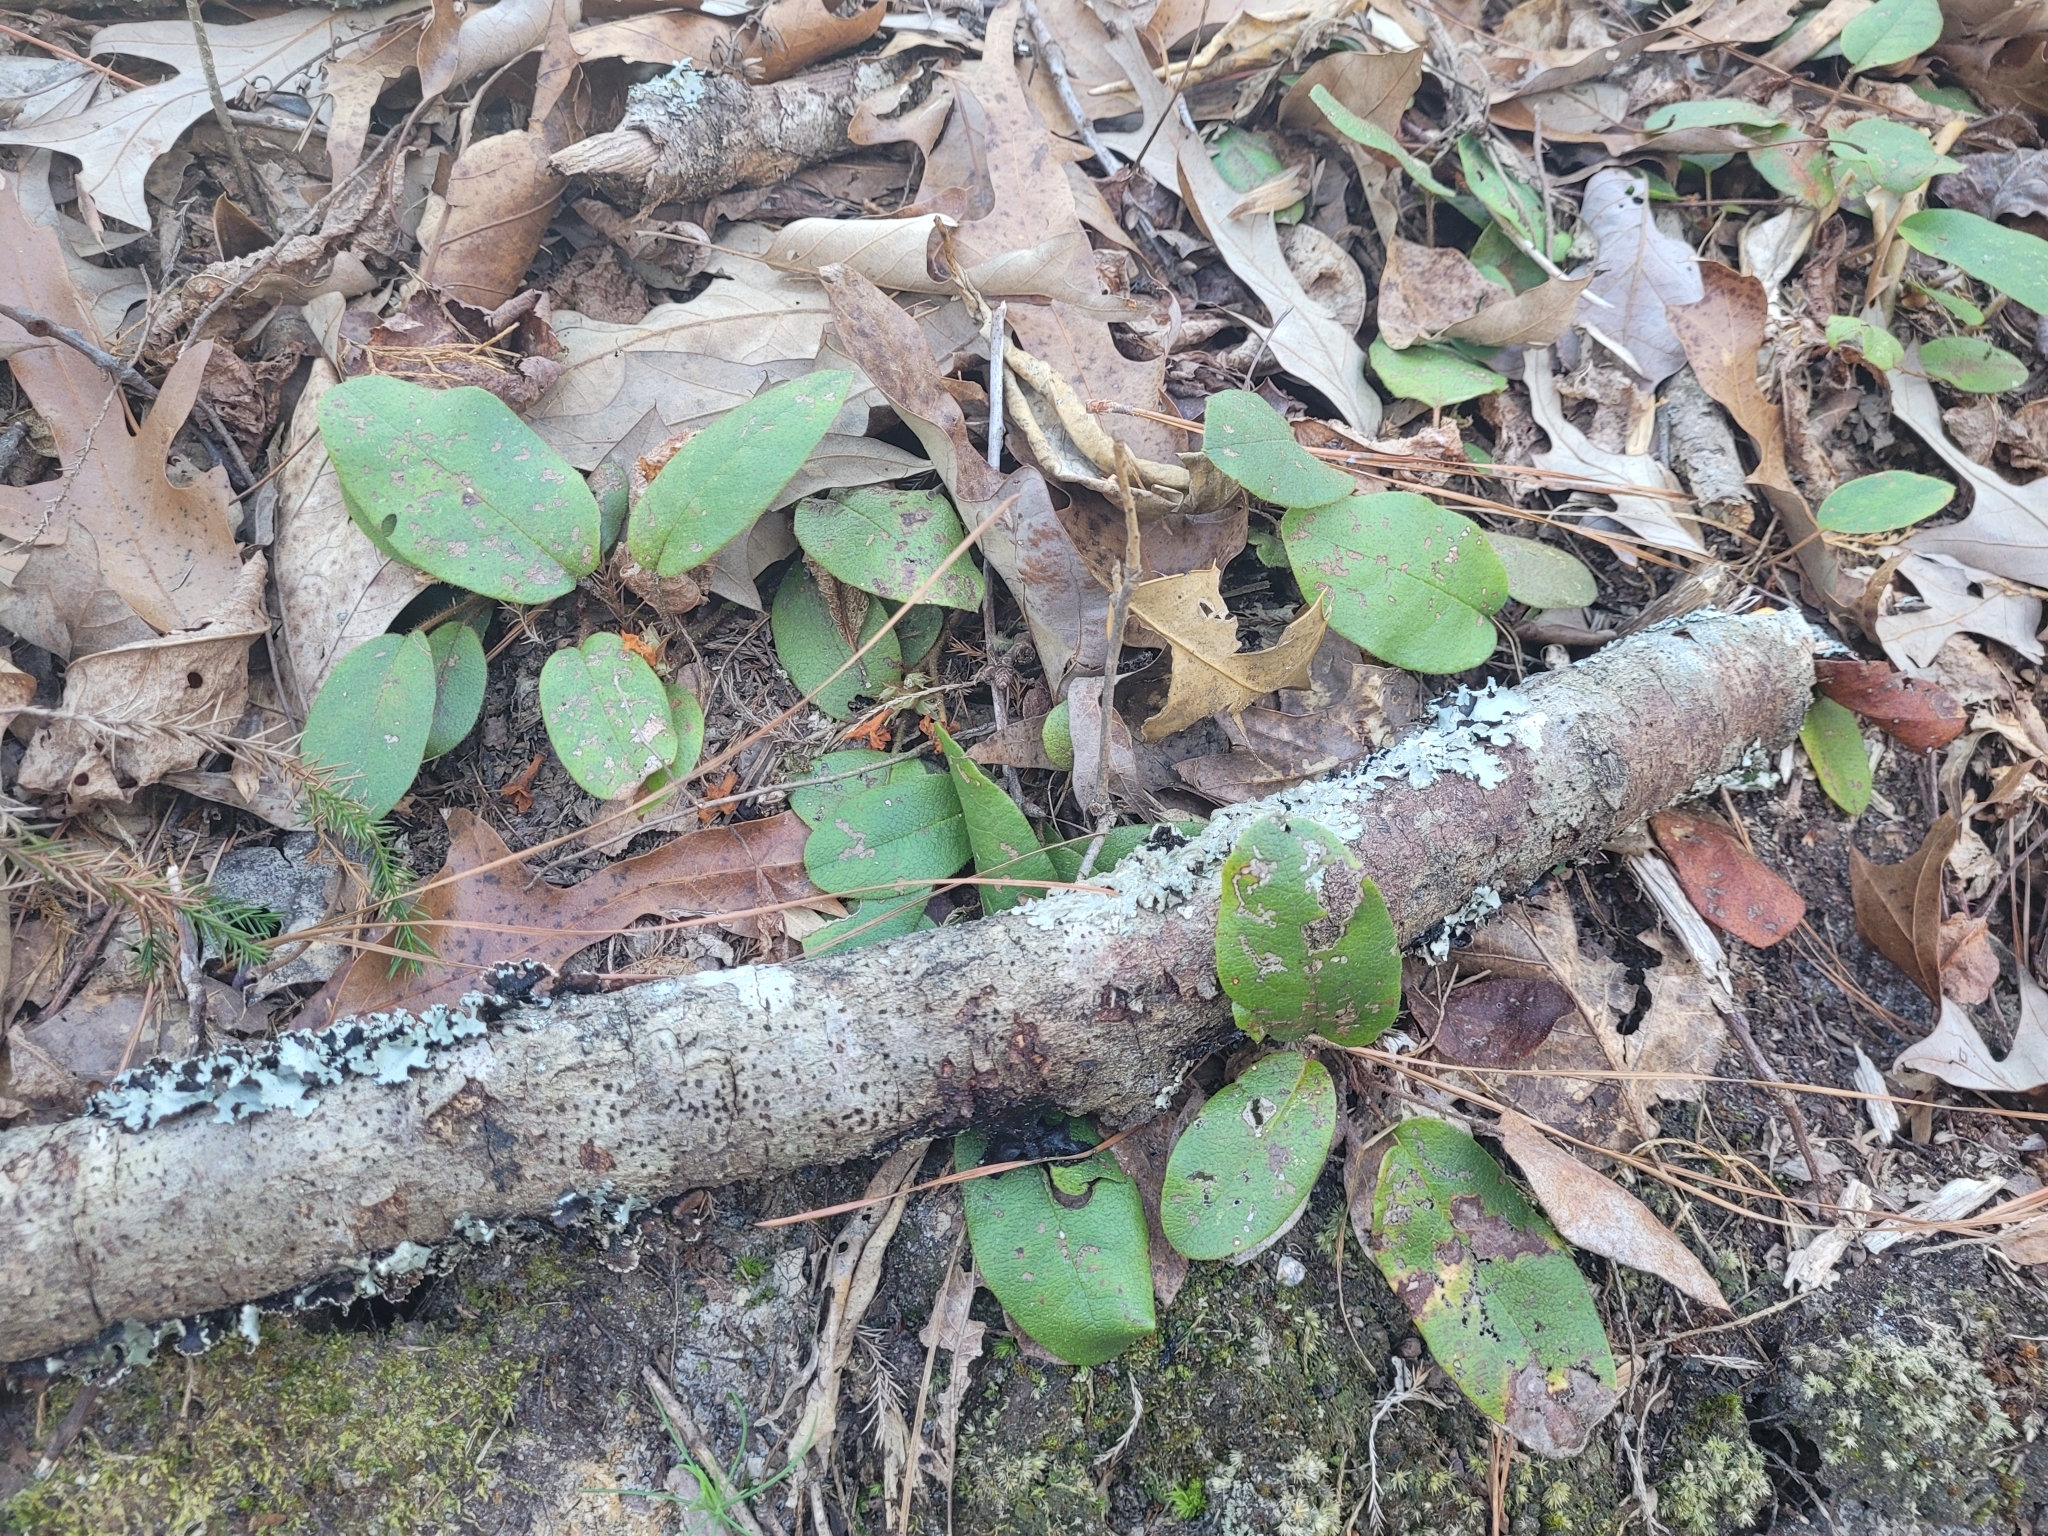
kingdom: Plantae
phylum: Tracheophyta
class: Magnoliopsida
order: Gentianales
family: Rubiaceae
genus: Mitchella
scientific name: Mitchella repens
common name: Partridge-berry
